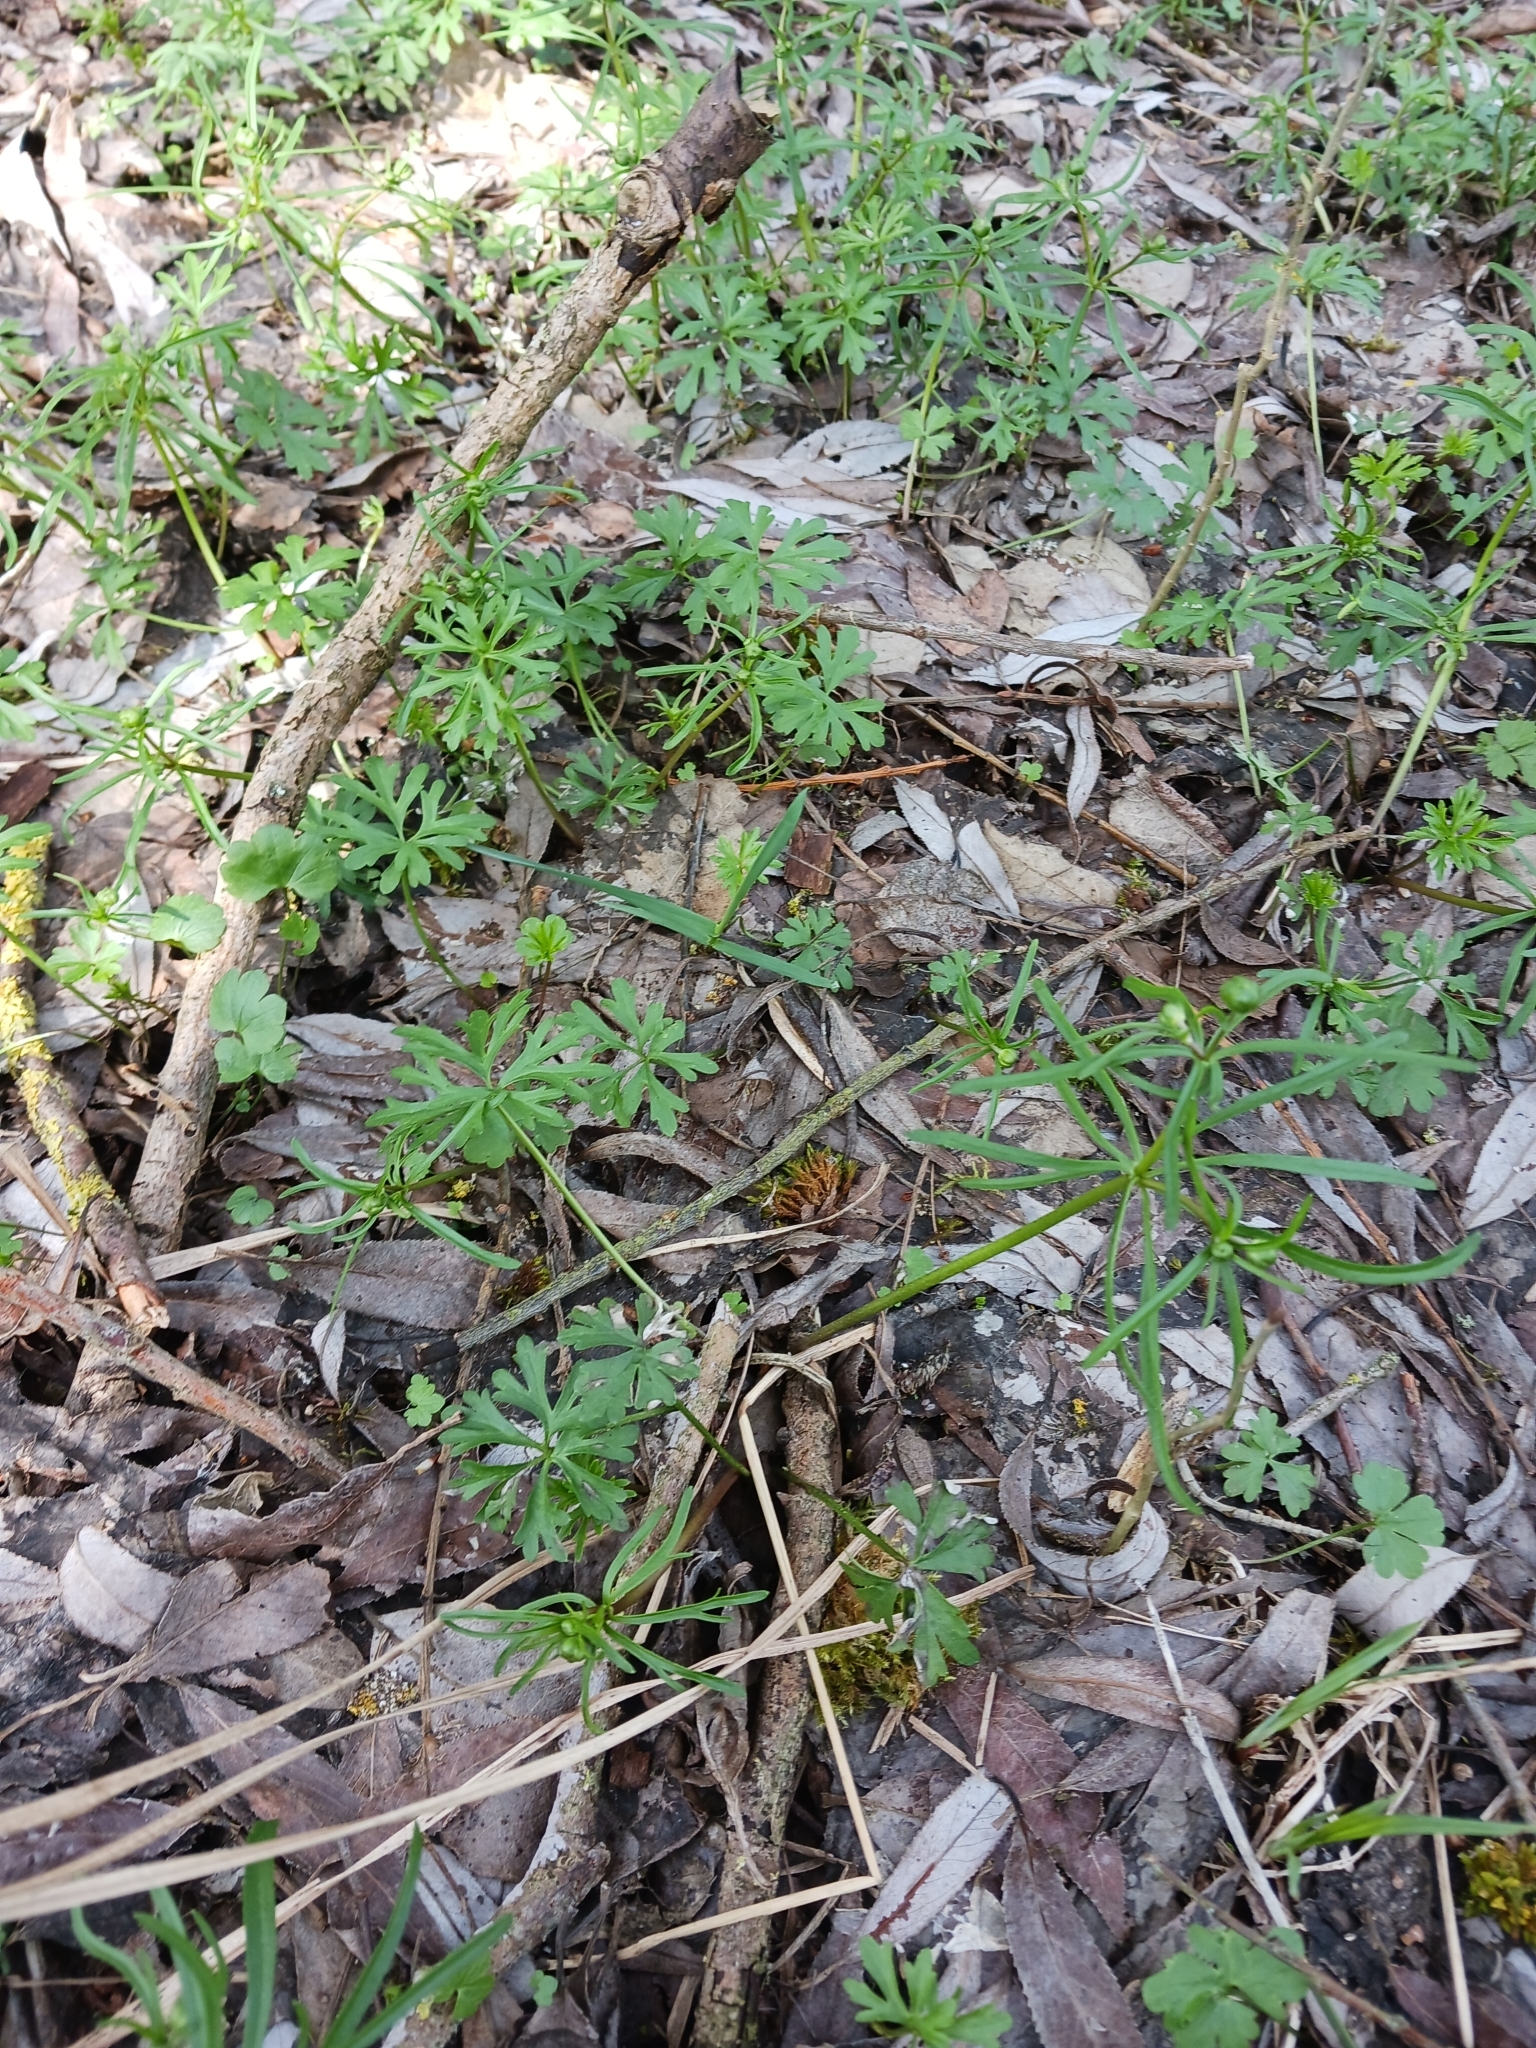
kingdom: Plantae
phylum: Tracheophyta
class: Magnoliopsida
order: Ranunculales
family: Ranunculaceae
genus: Ranunculus
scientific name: Ranunculus auricomus
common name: Goldilocks buttercup
